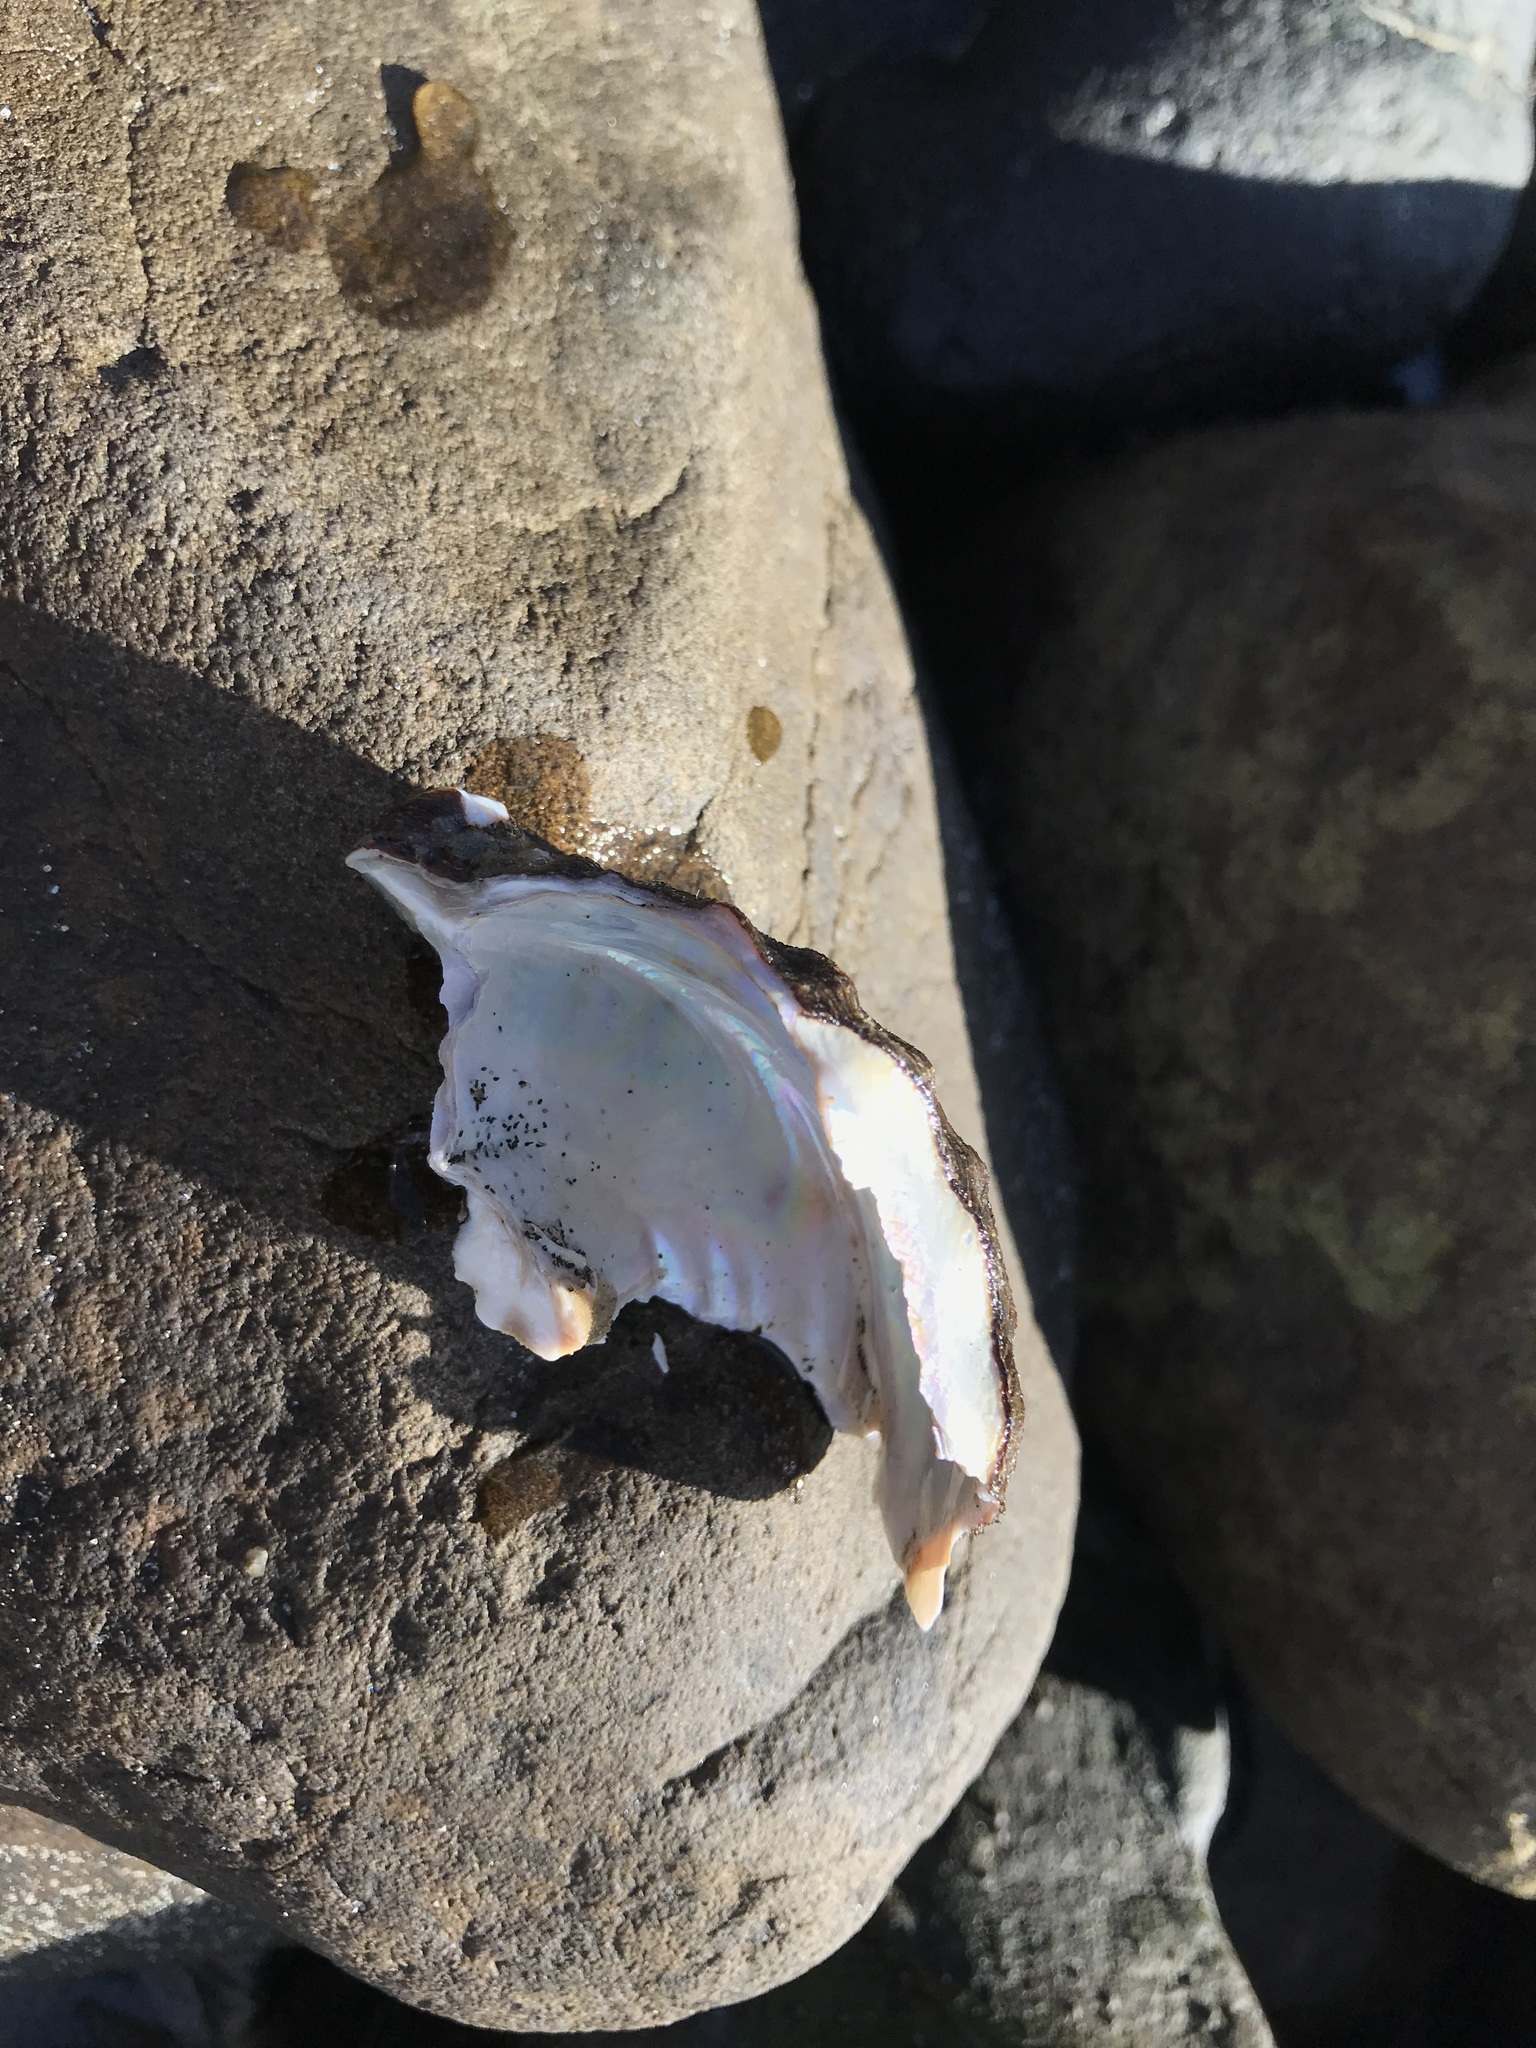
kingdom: Animalia
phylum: Mollusca
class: Gastropoda
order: Trochida
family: Turbinidae
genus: Megastraea
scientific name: Megastraea undosa
